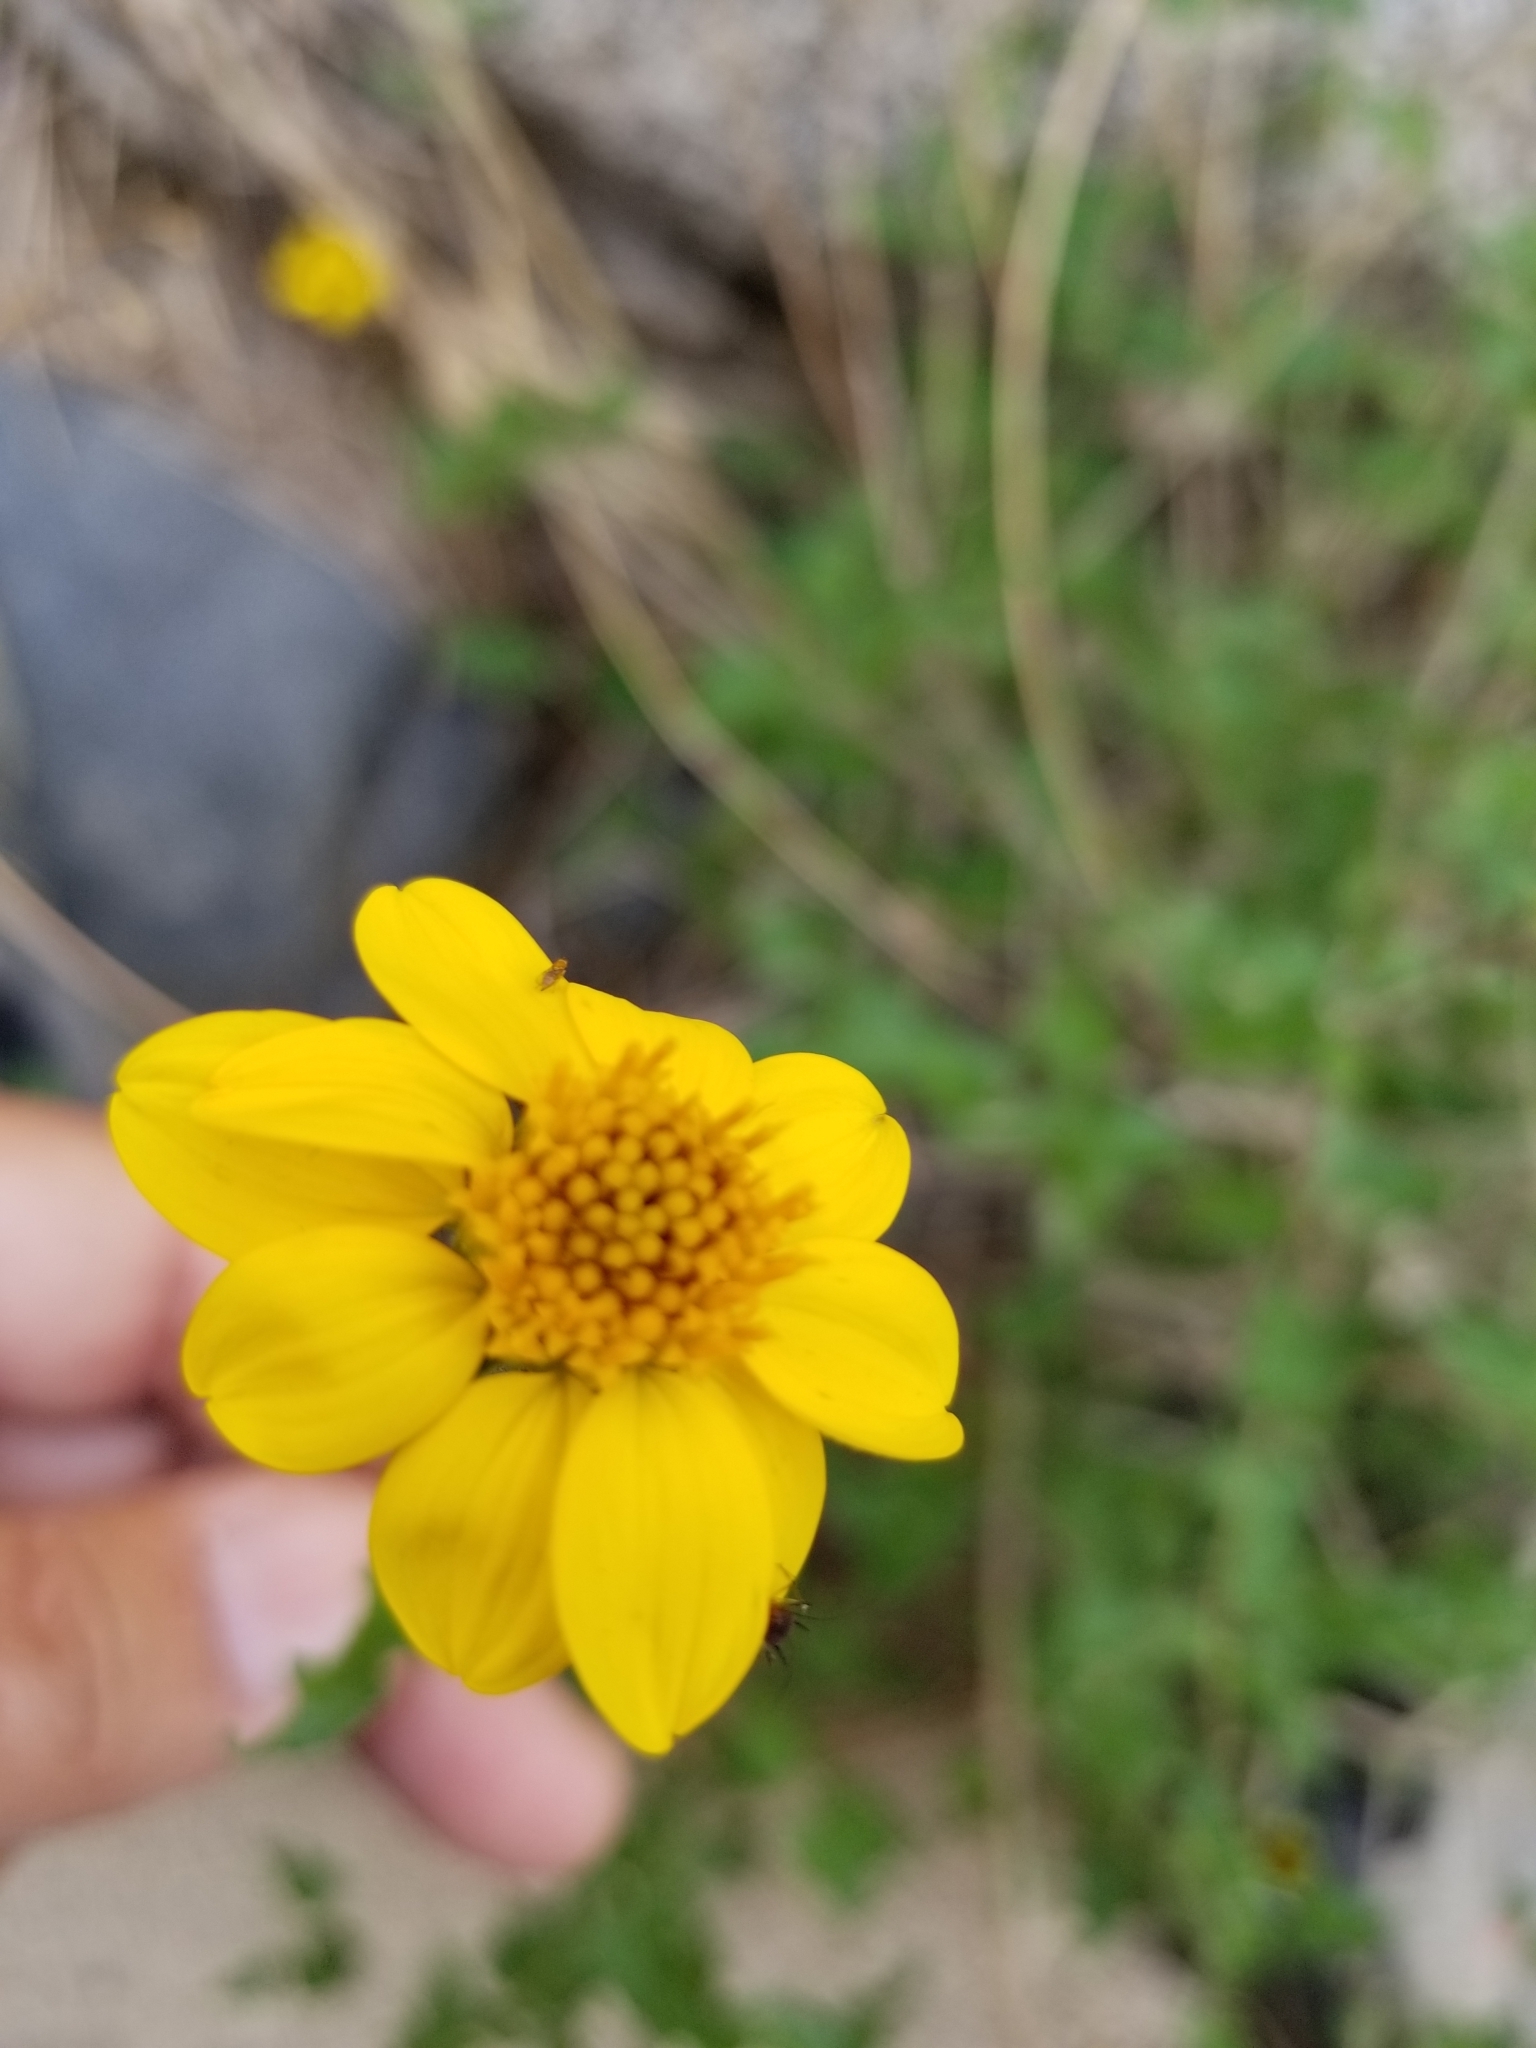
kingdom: Plantae
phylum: Tracheophyta
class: Magnoliopsida
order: Asterales
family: Asteraceae
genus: Bahiopsis
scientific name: Bahiopsis parishii
